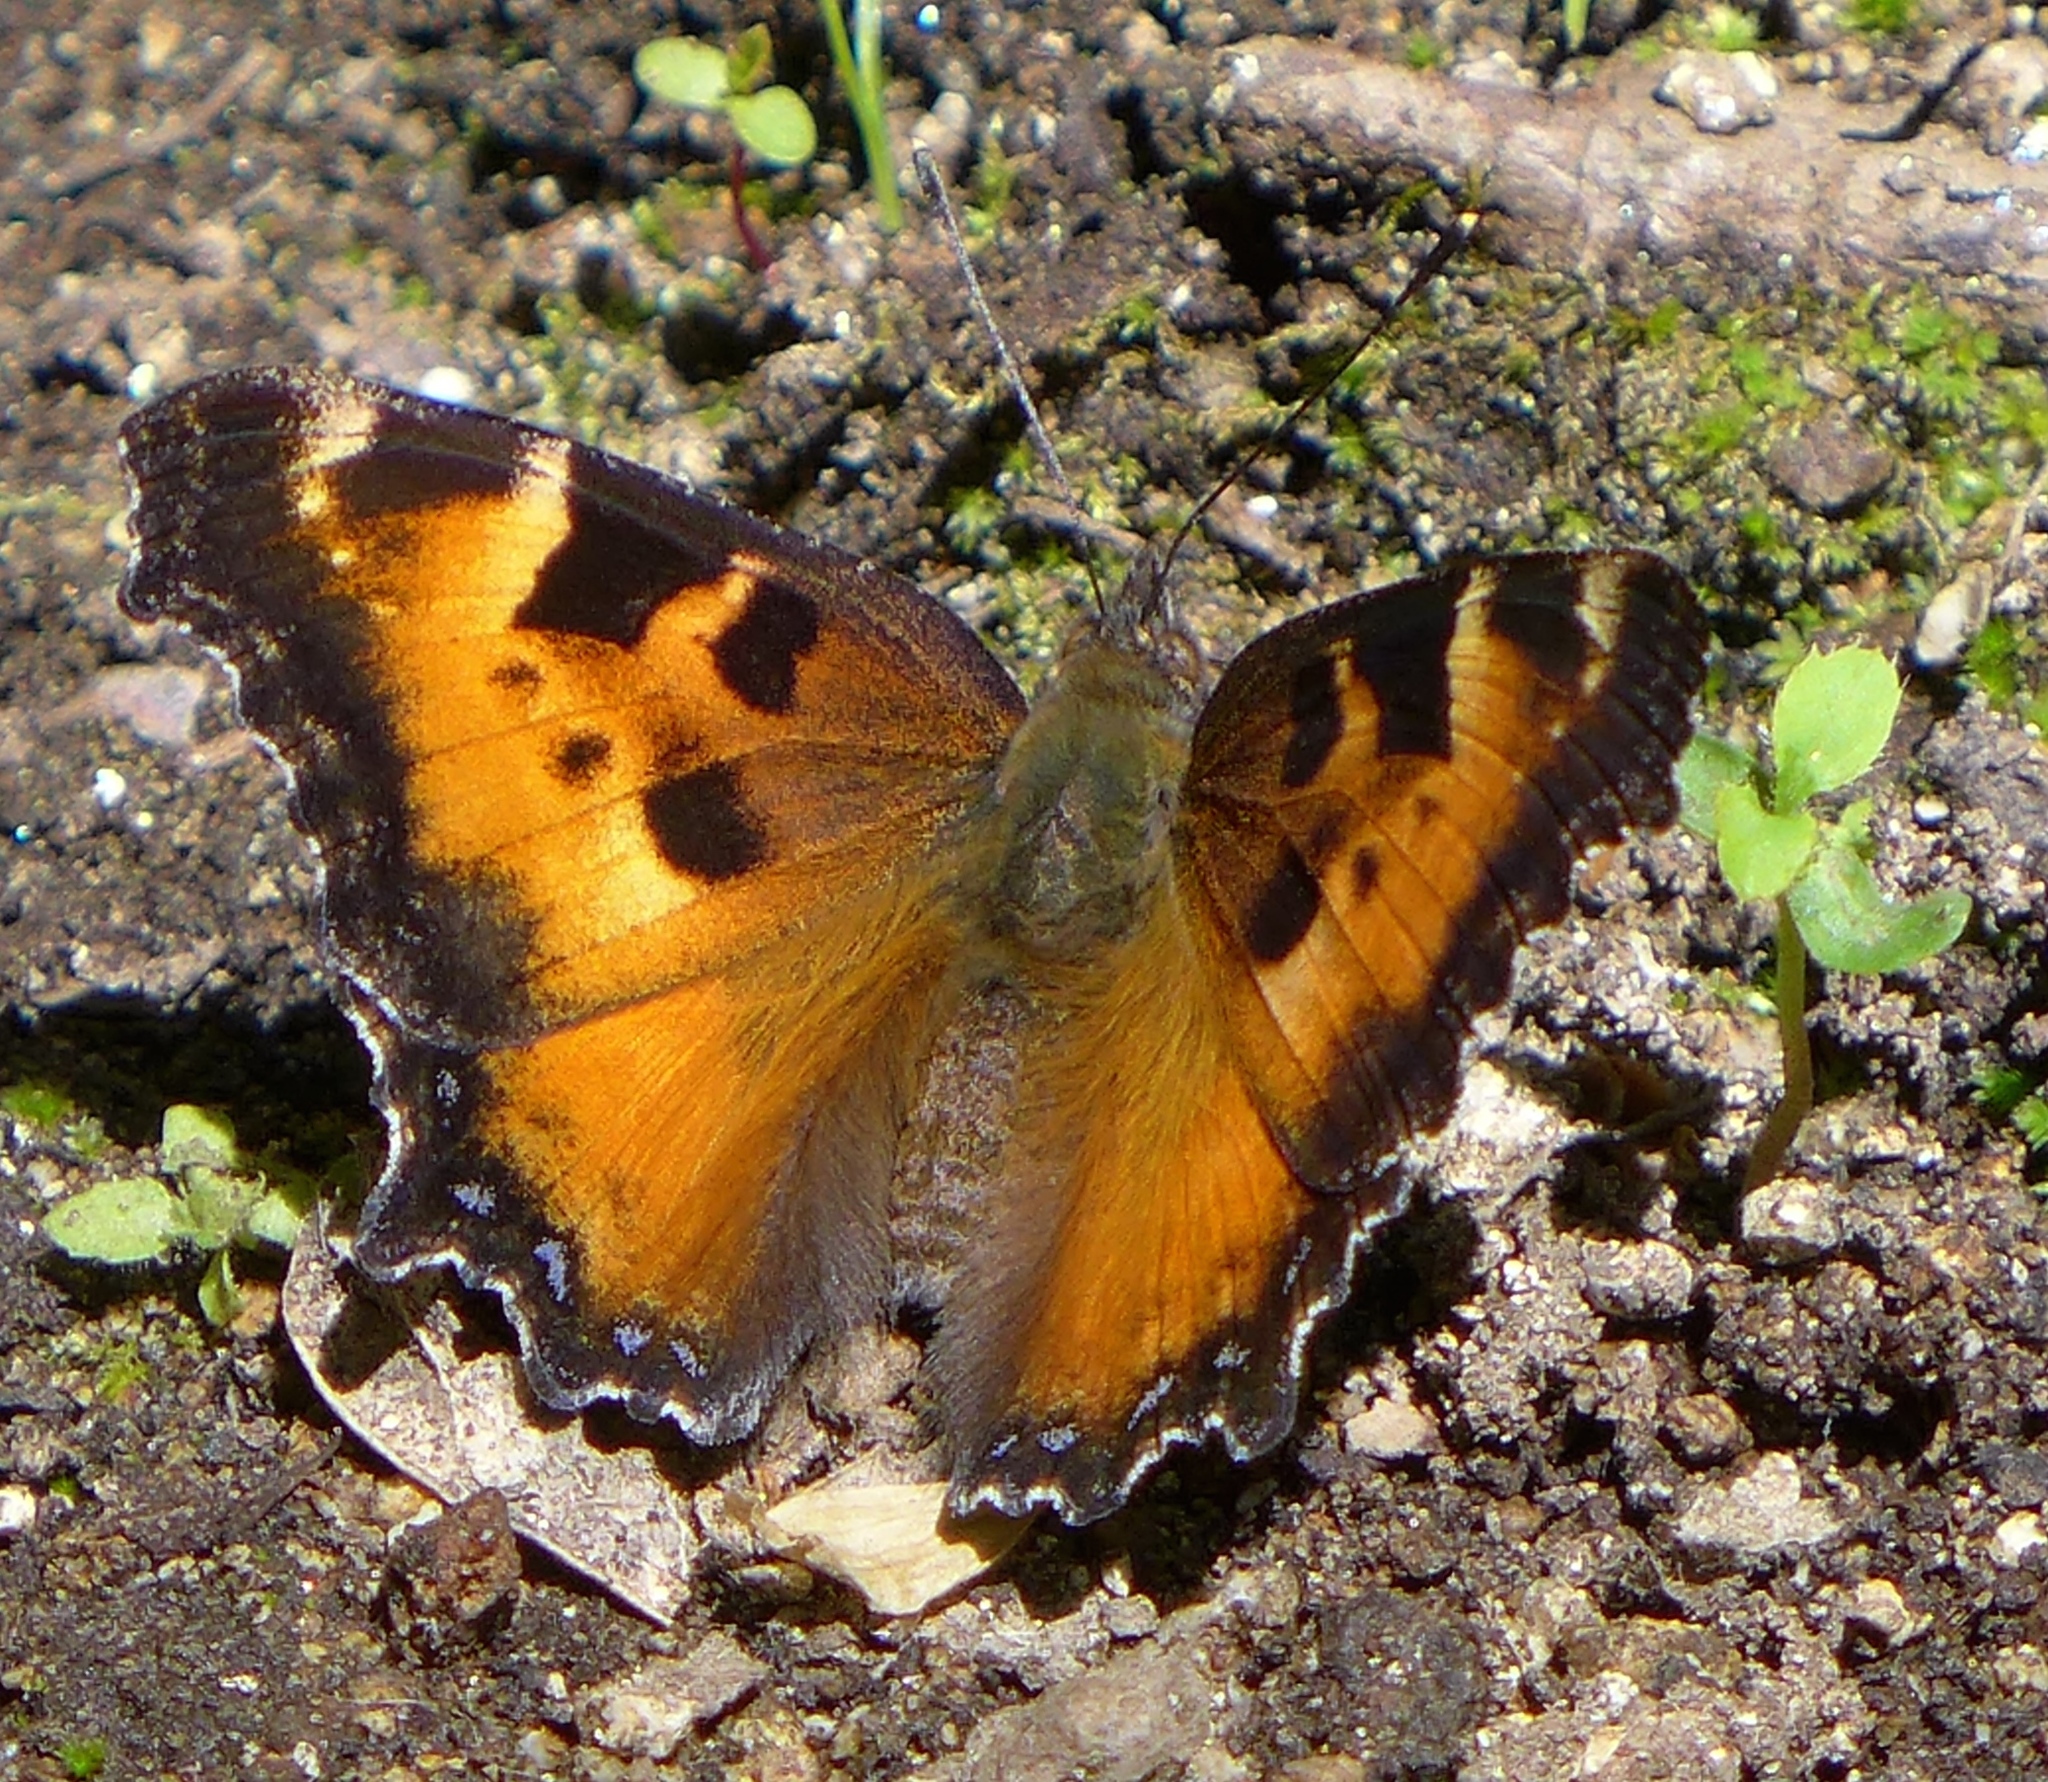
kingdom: Animalia
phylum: Arthropoda
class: Insecta
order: Lepidoptera
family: Nymphalidae
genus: Nymphalis
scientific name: Nymphalis californica
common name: California tortoiseshell
